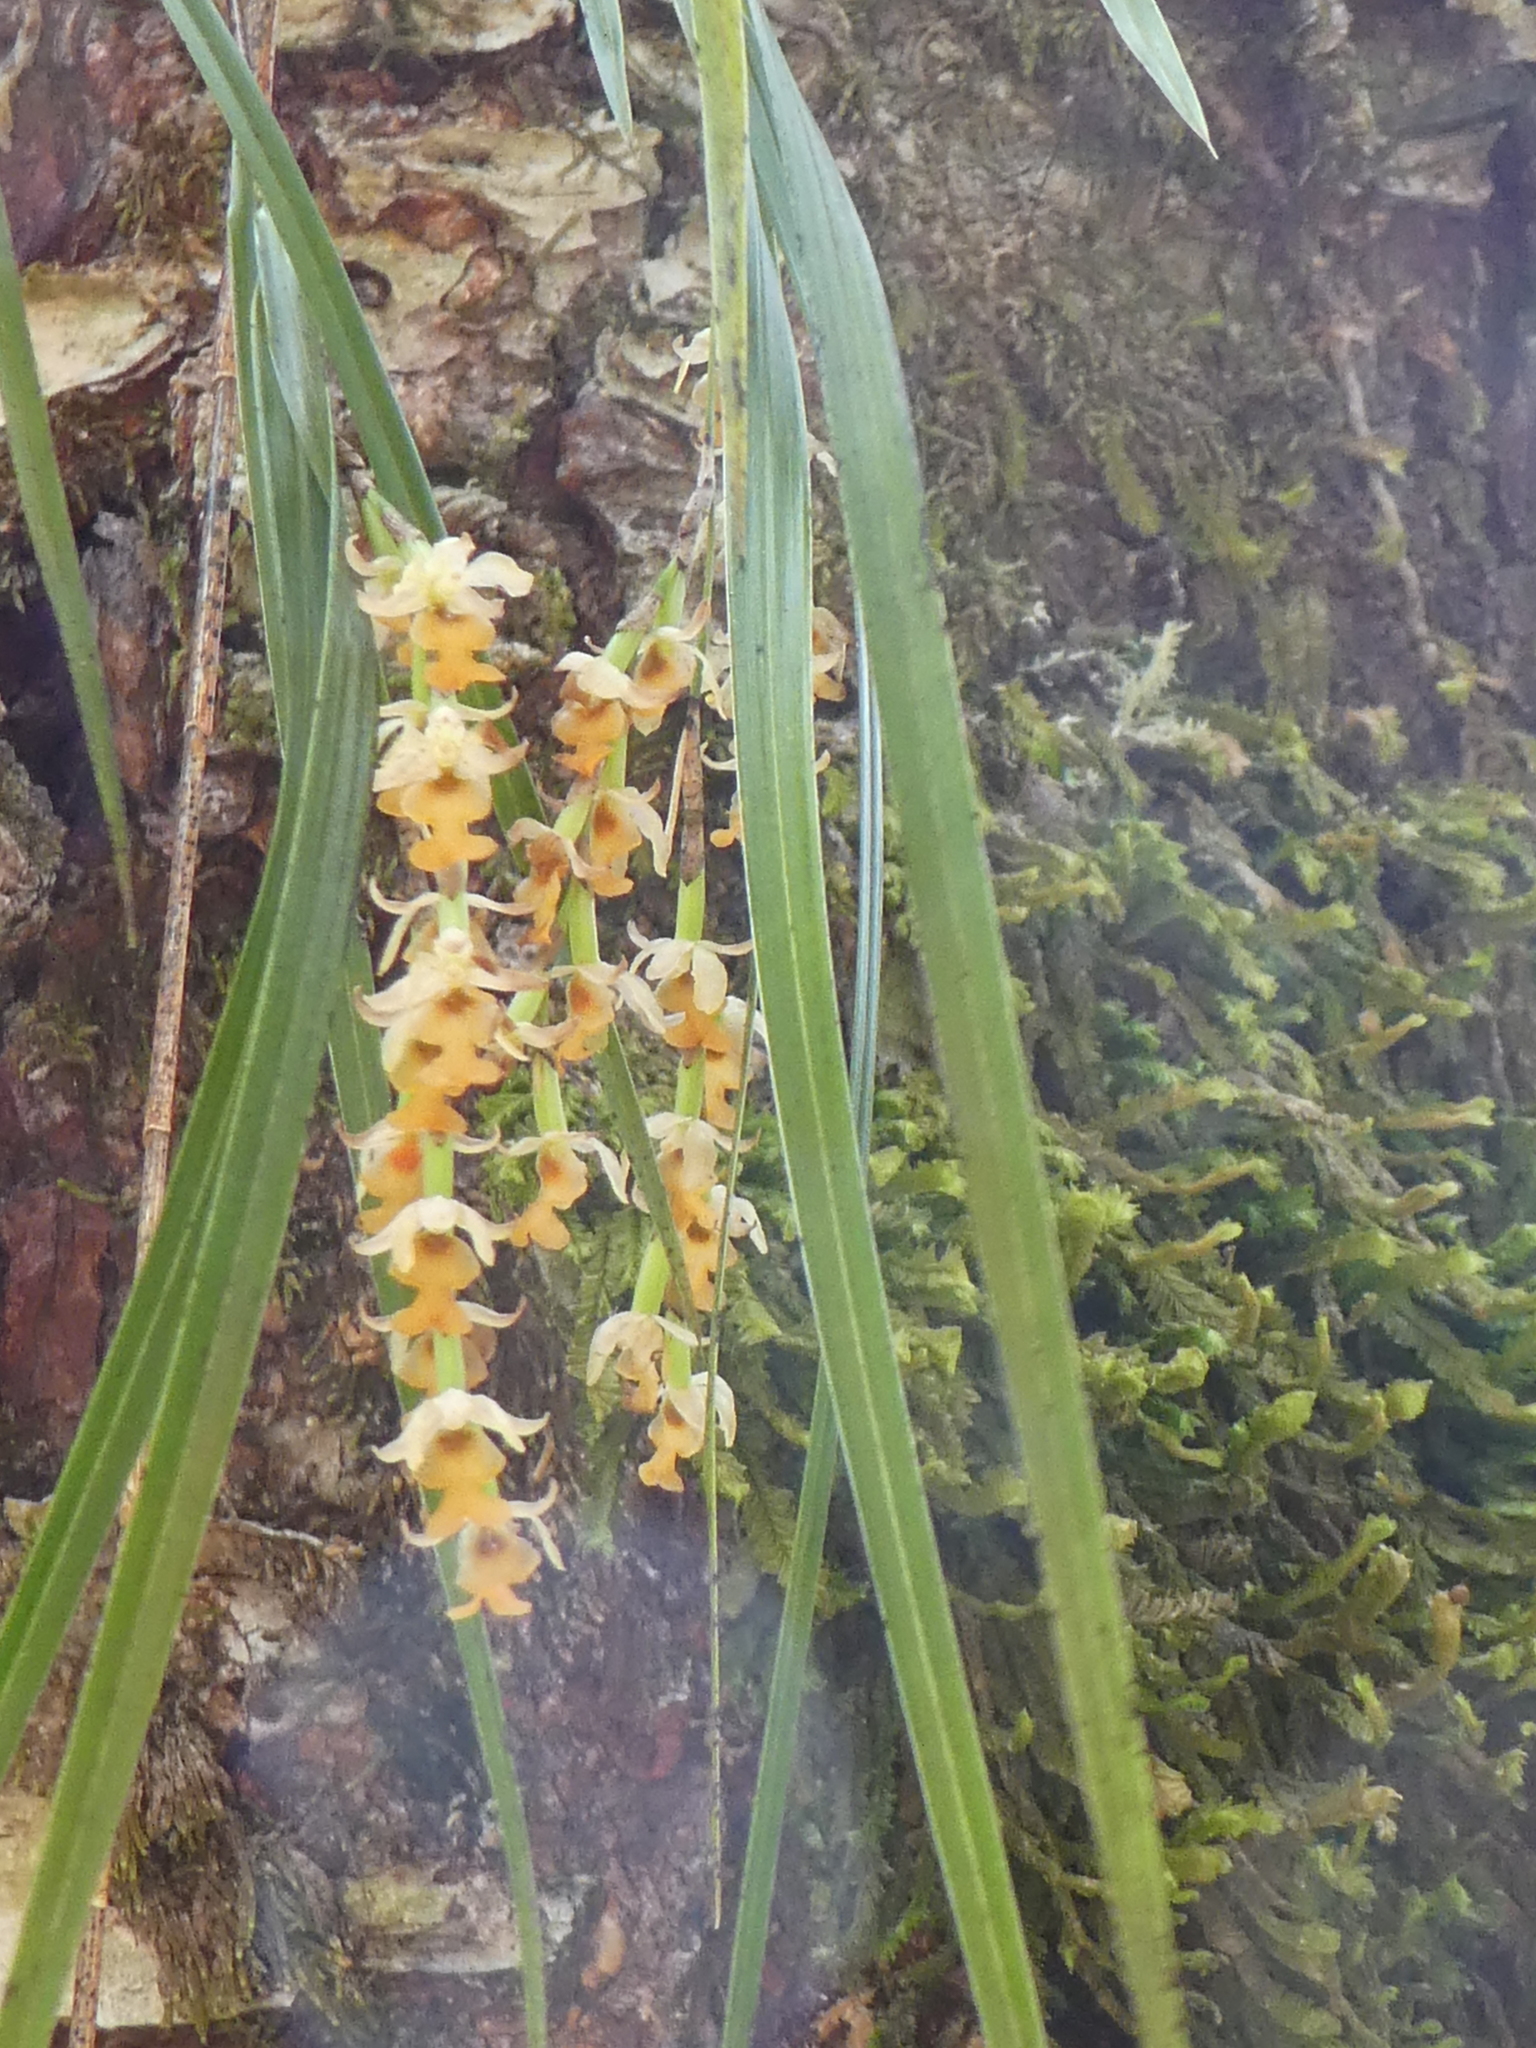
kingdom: Plantae
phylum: Tracheophyta
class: Liliopsida
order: Asparagales
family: Orchidaceae
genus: Earina
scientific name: Earina mucronata
